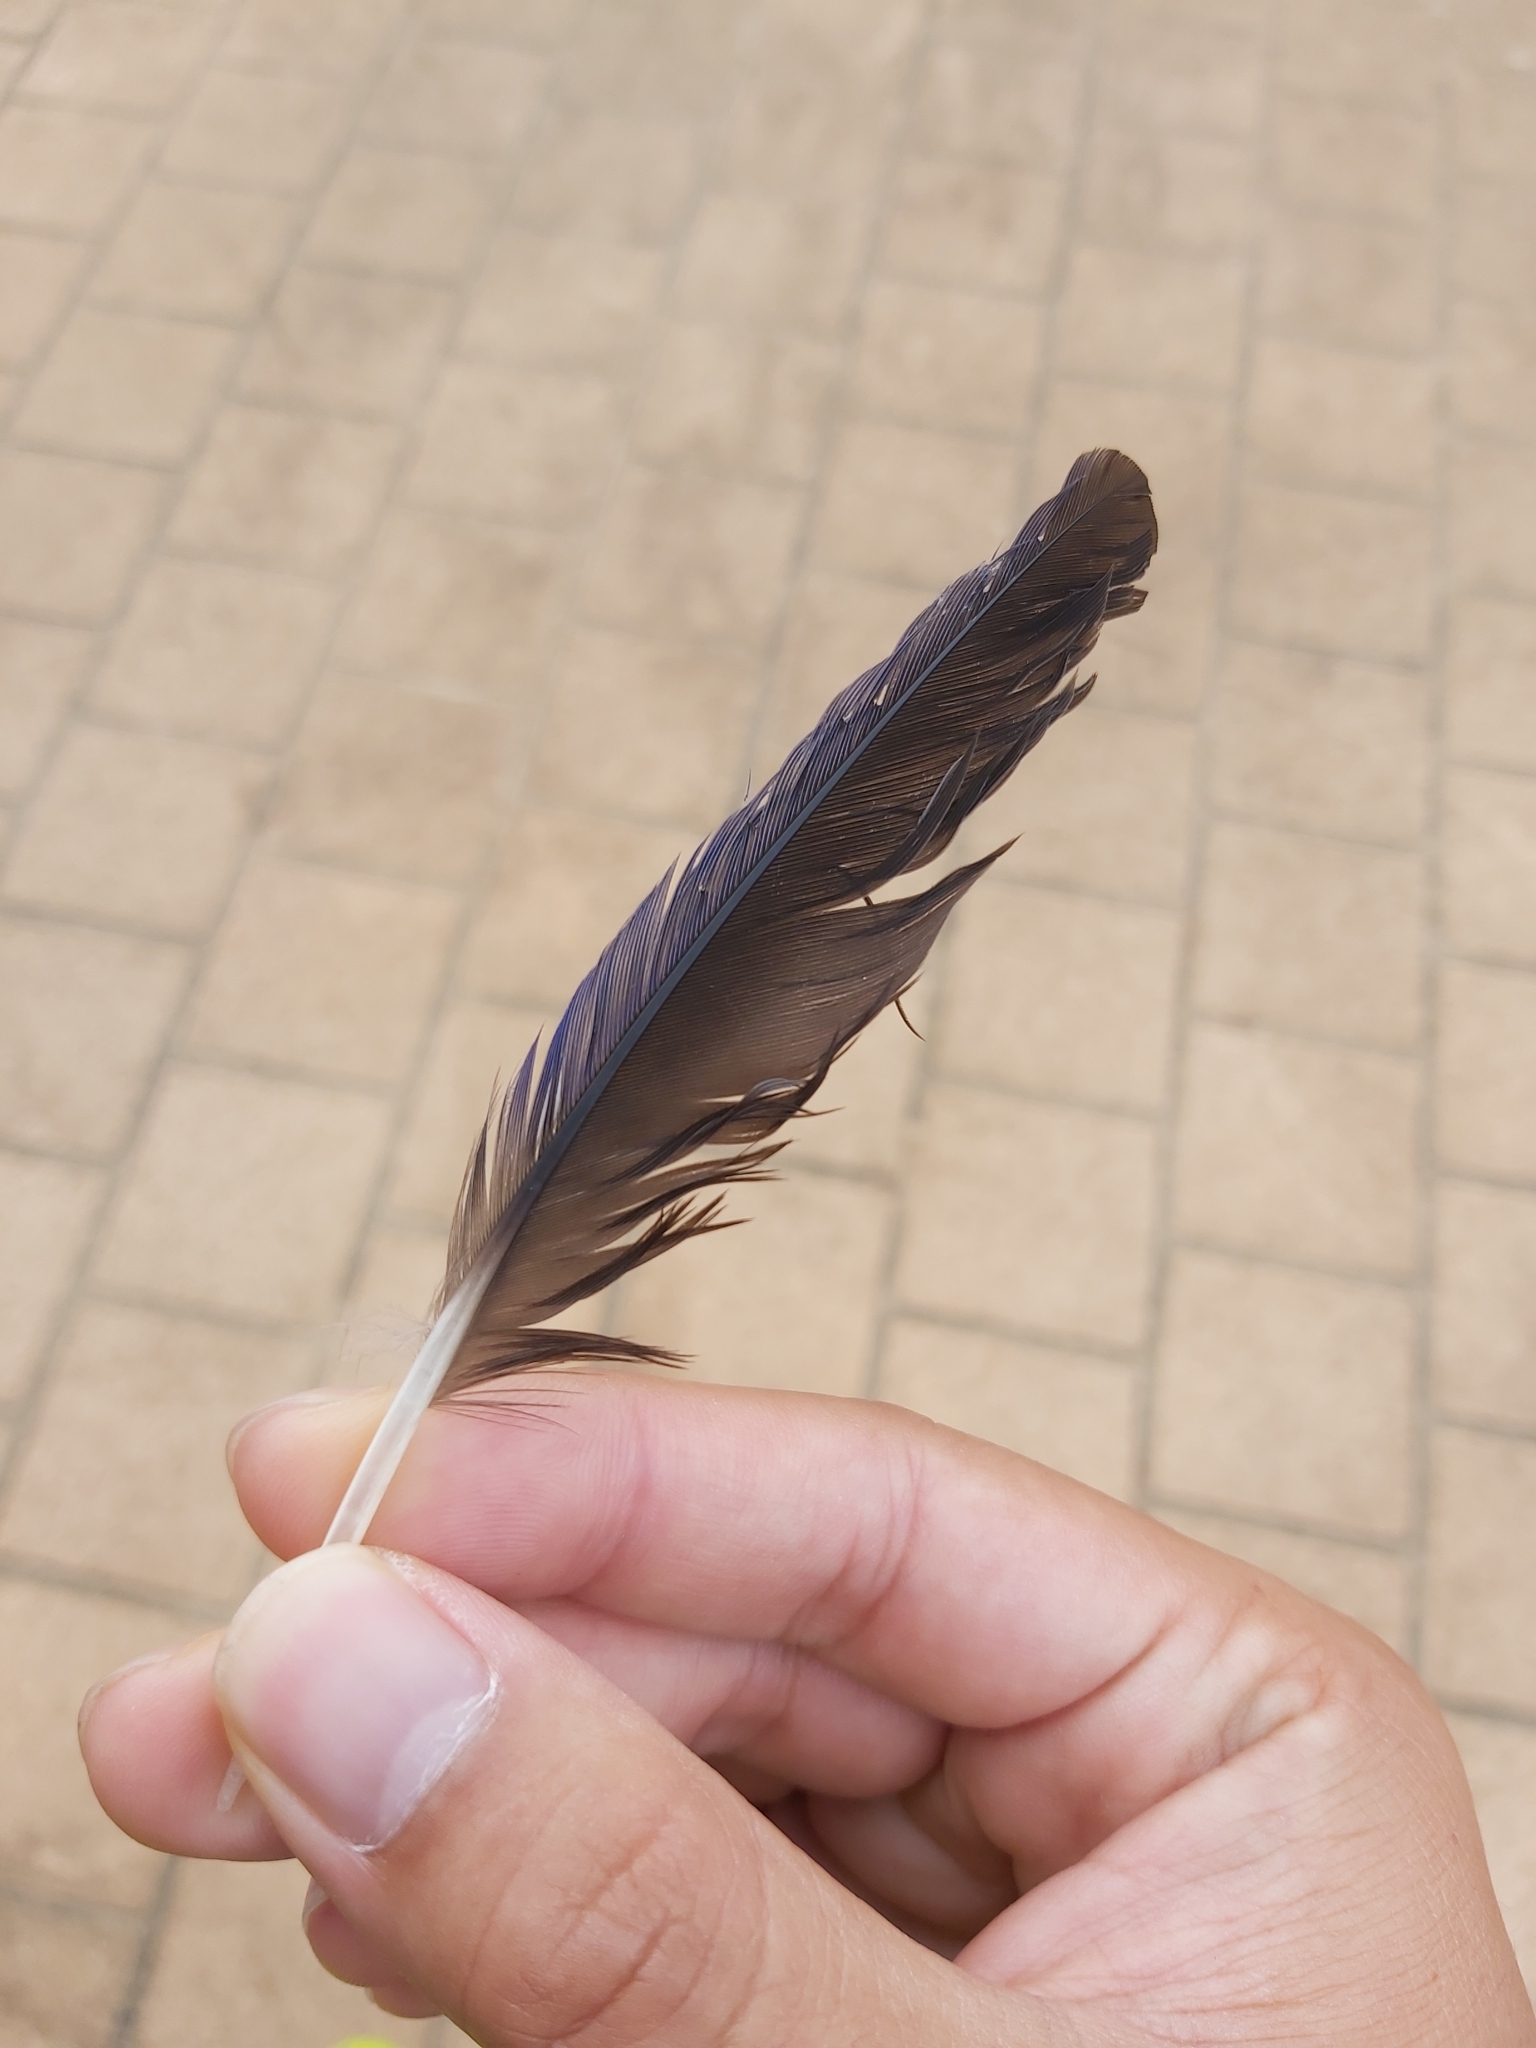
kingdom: Animalia
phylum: Chordata
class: Aves
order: Psittaciformes
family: Psittacidae
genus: Platycercus
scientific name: Platycercus elegans
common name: Crimson rosella
